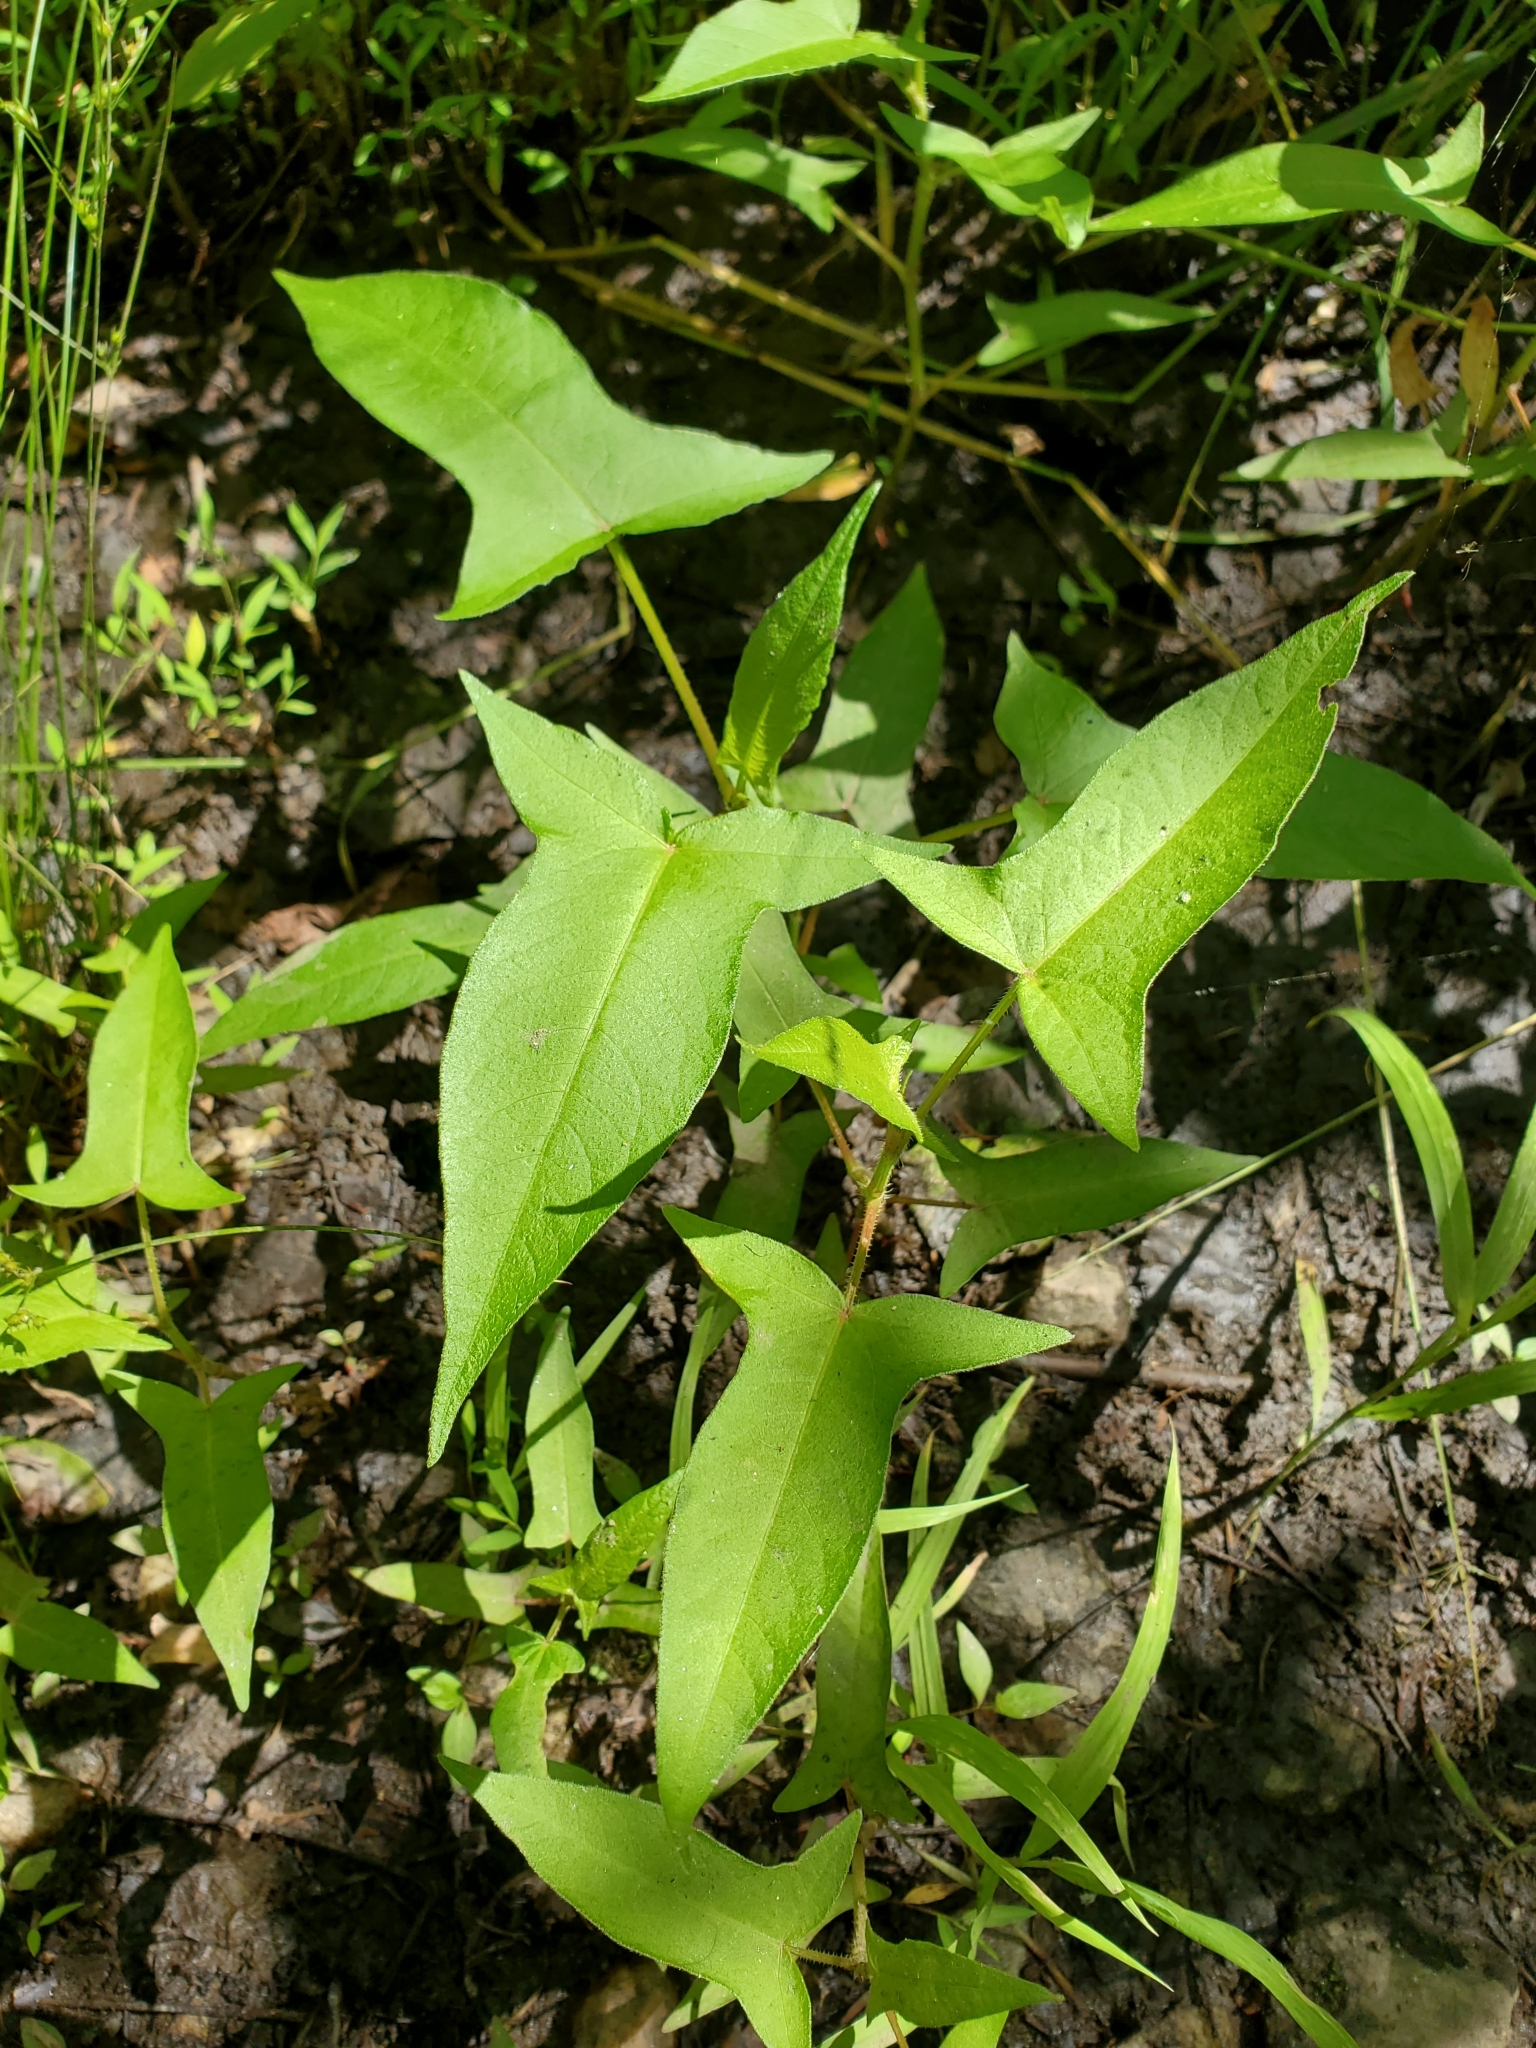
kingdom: Plantae
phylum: Tracheophyta
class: Magnoliopsida
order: Caryophyllales
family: Polygonaceae
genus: Persicaria
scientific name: Persicaria arifolia
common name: Halberd-leaved tear-thumb
